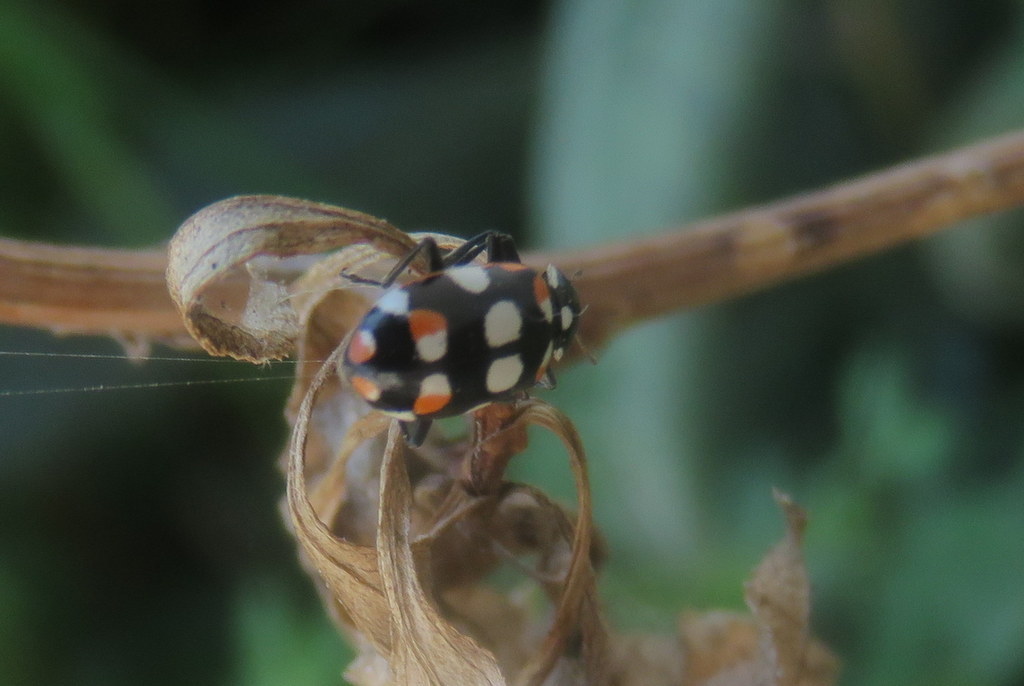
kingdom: Animalia
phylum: Arthropoda
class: Insecta
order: Coleoptera
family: Coccinellidae
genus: Eriopis
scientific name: Eriopis connexa
